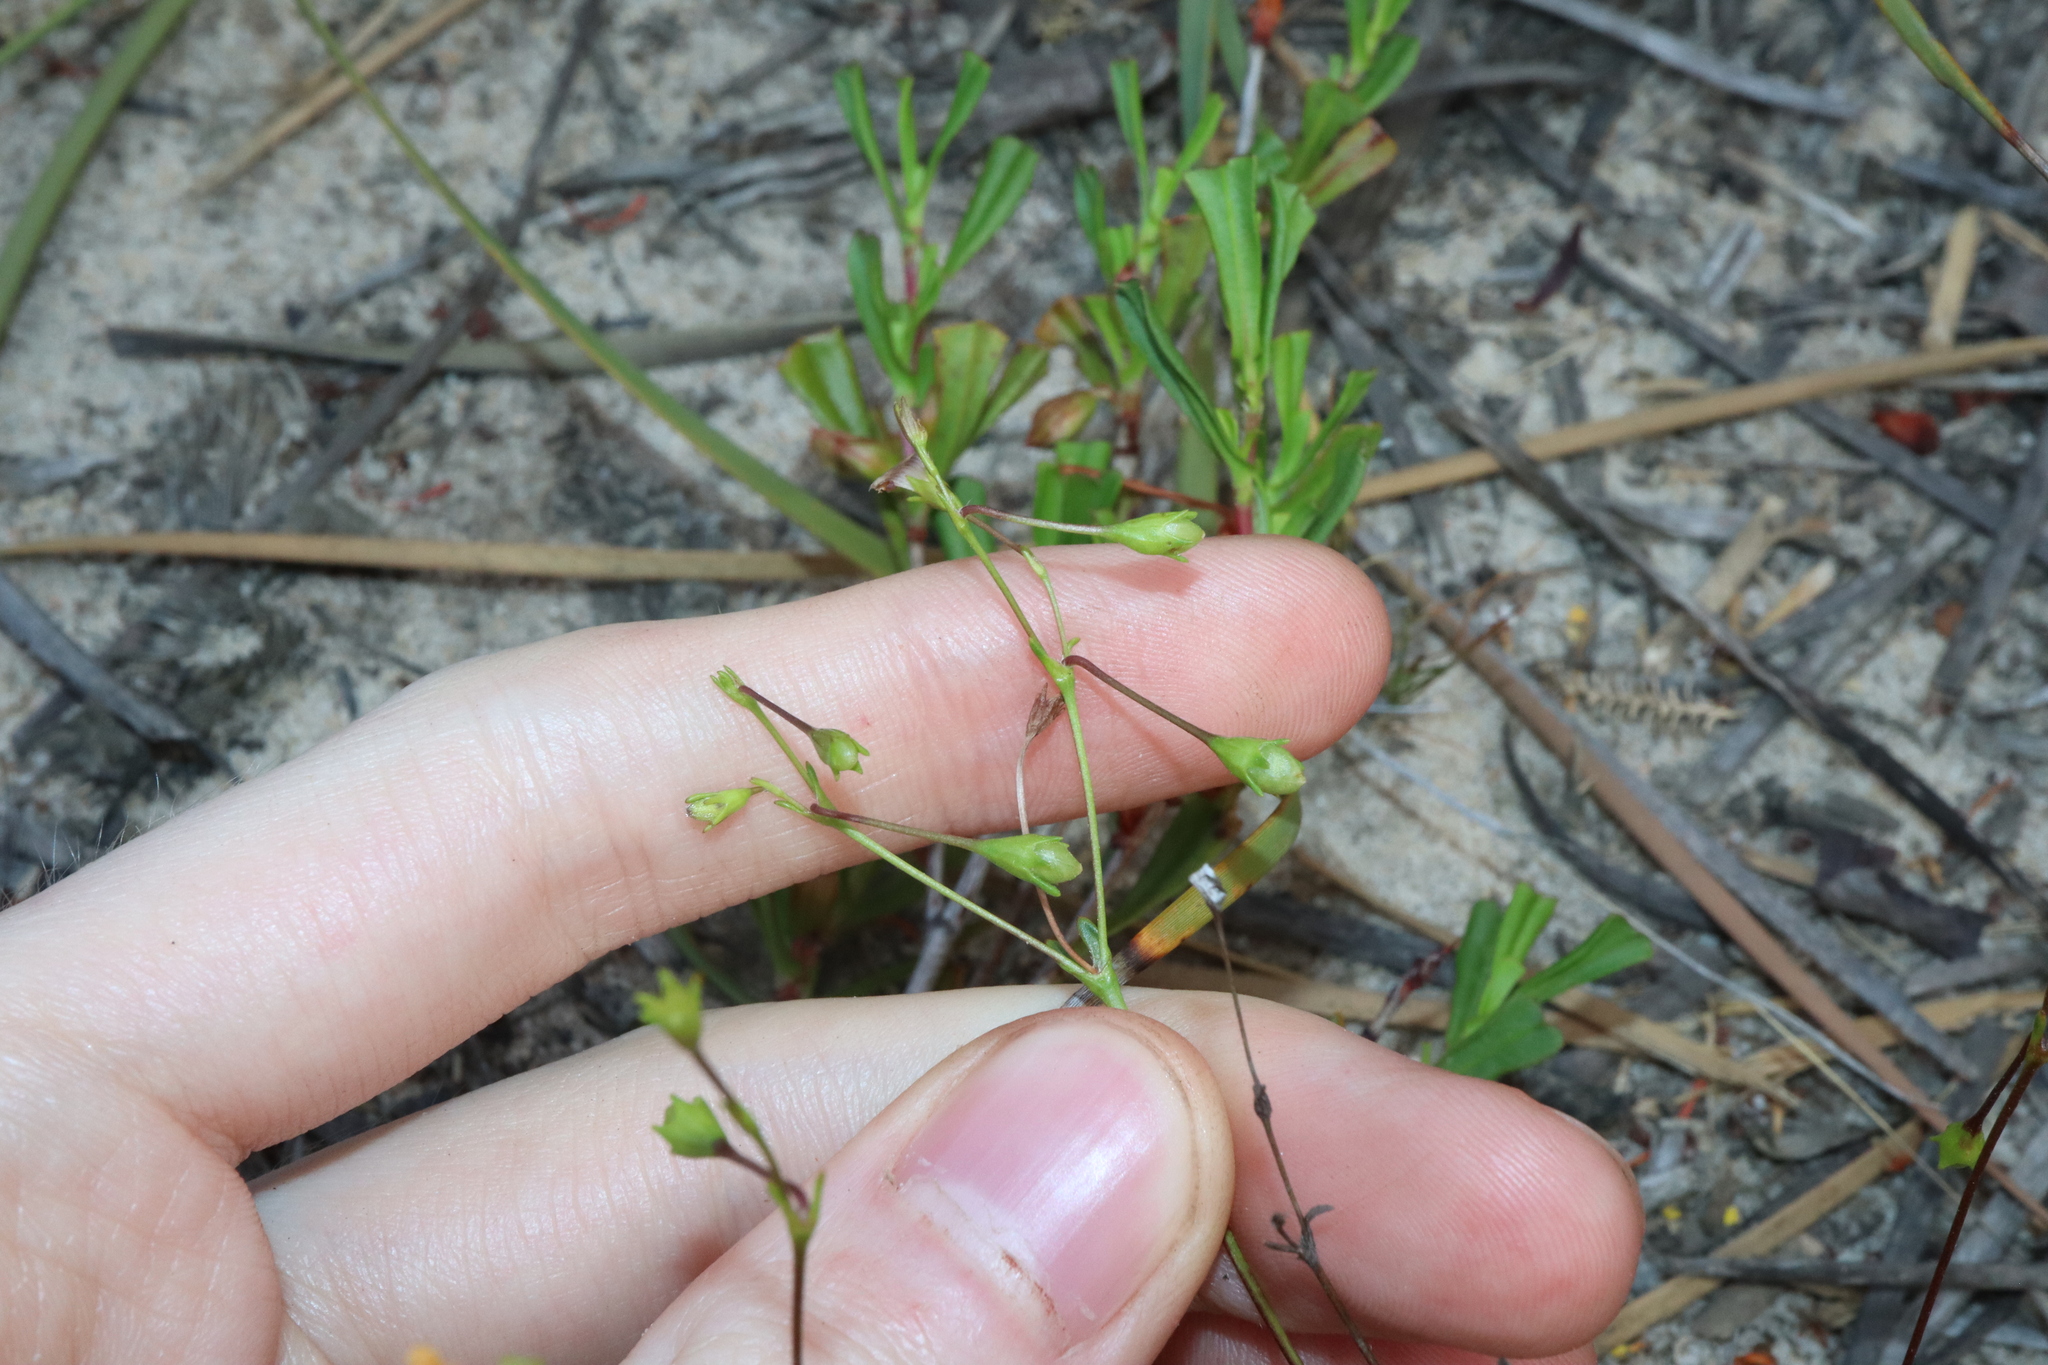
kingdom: Plantae
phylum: Tracheophyta
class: Magnoliopsida
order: Asterales
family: Goodeniaceae
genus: Goodenia
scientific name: Goodenia trinervis
